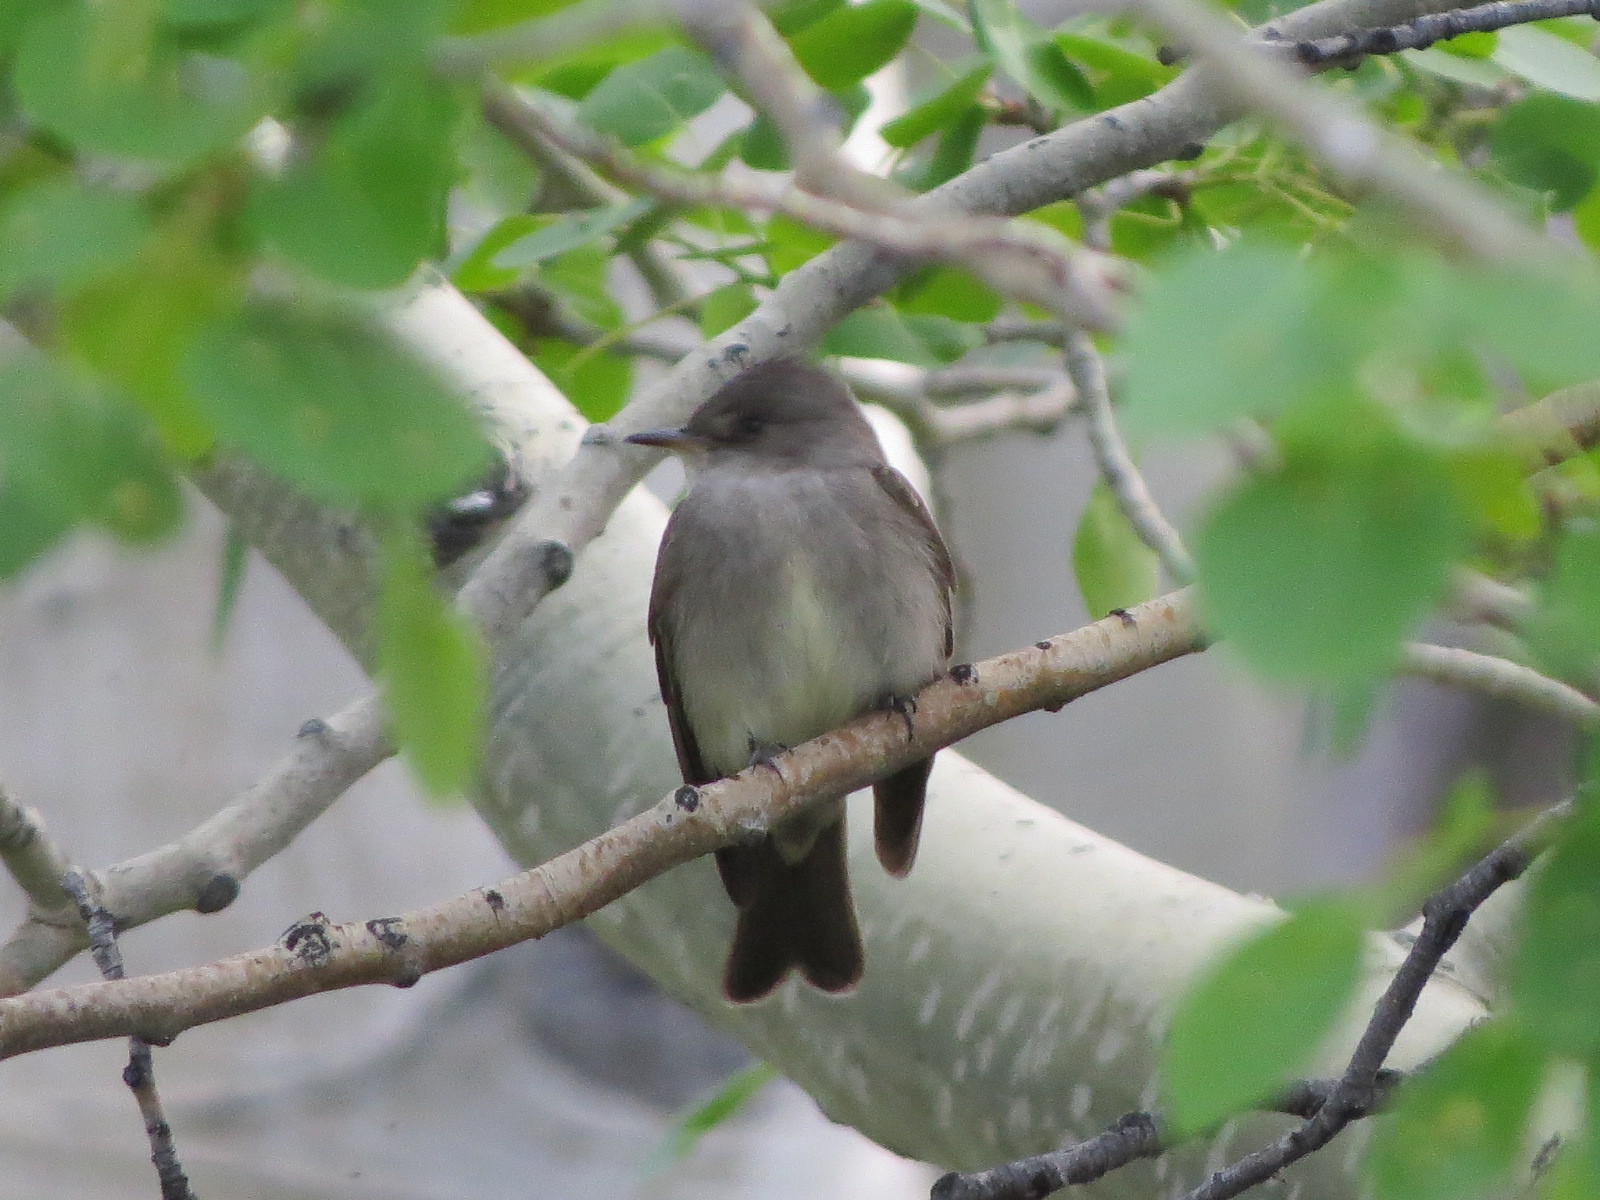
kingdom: Animalia
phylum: Chordata
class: Aves
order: Passeriformes
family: Tyrannidae
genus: Contopus
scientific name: Contopus sordidulus
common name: Western wood-pewee
